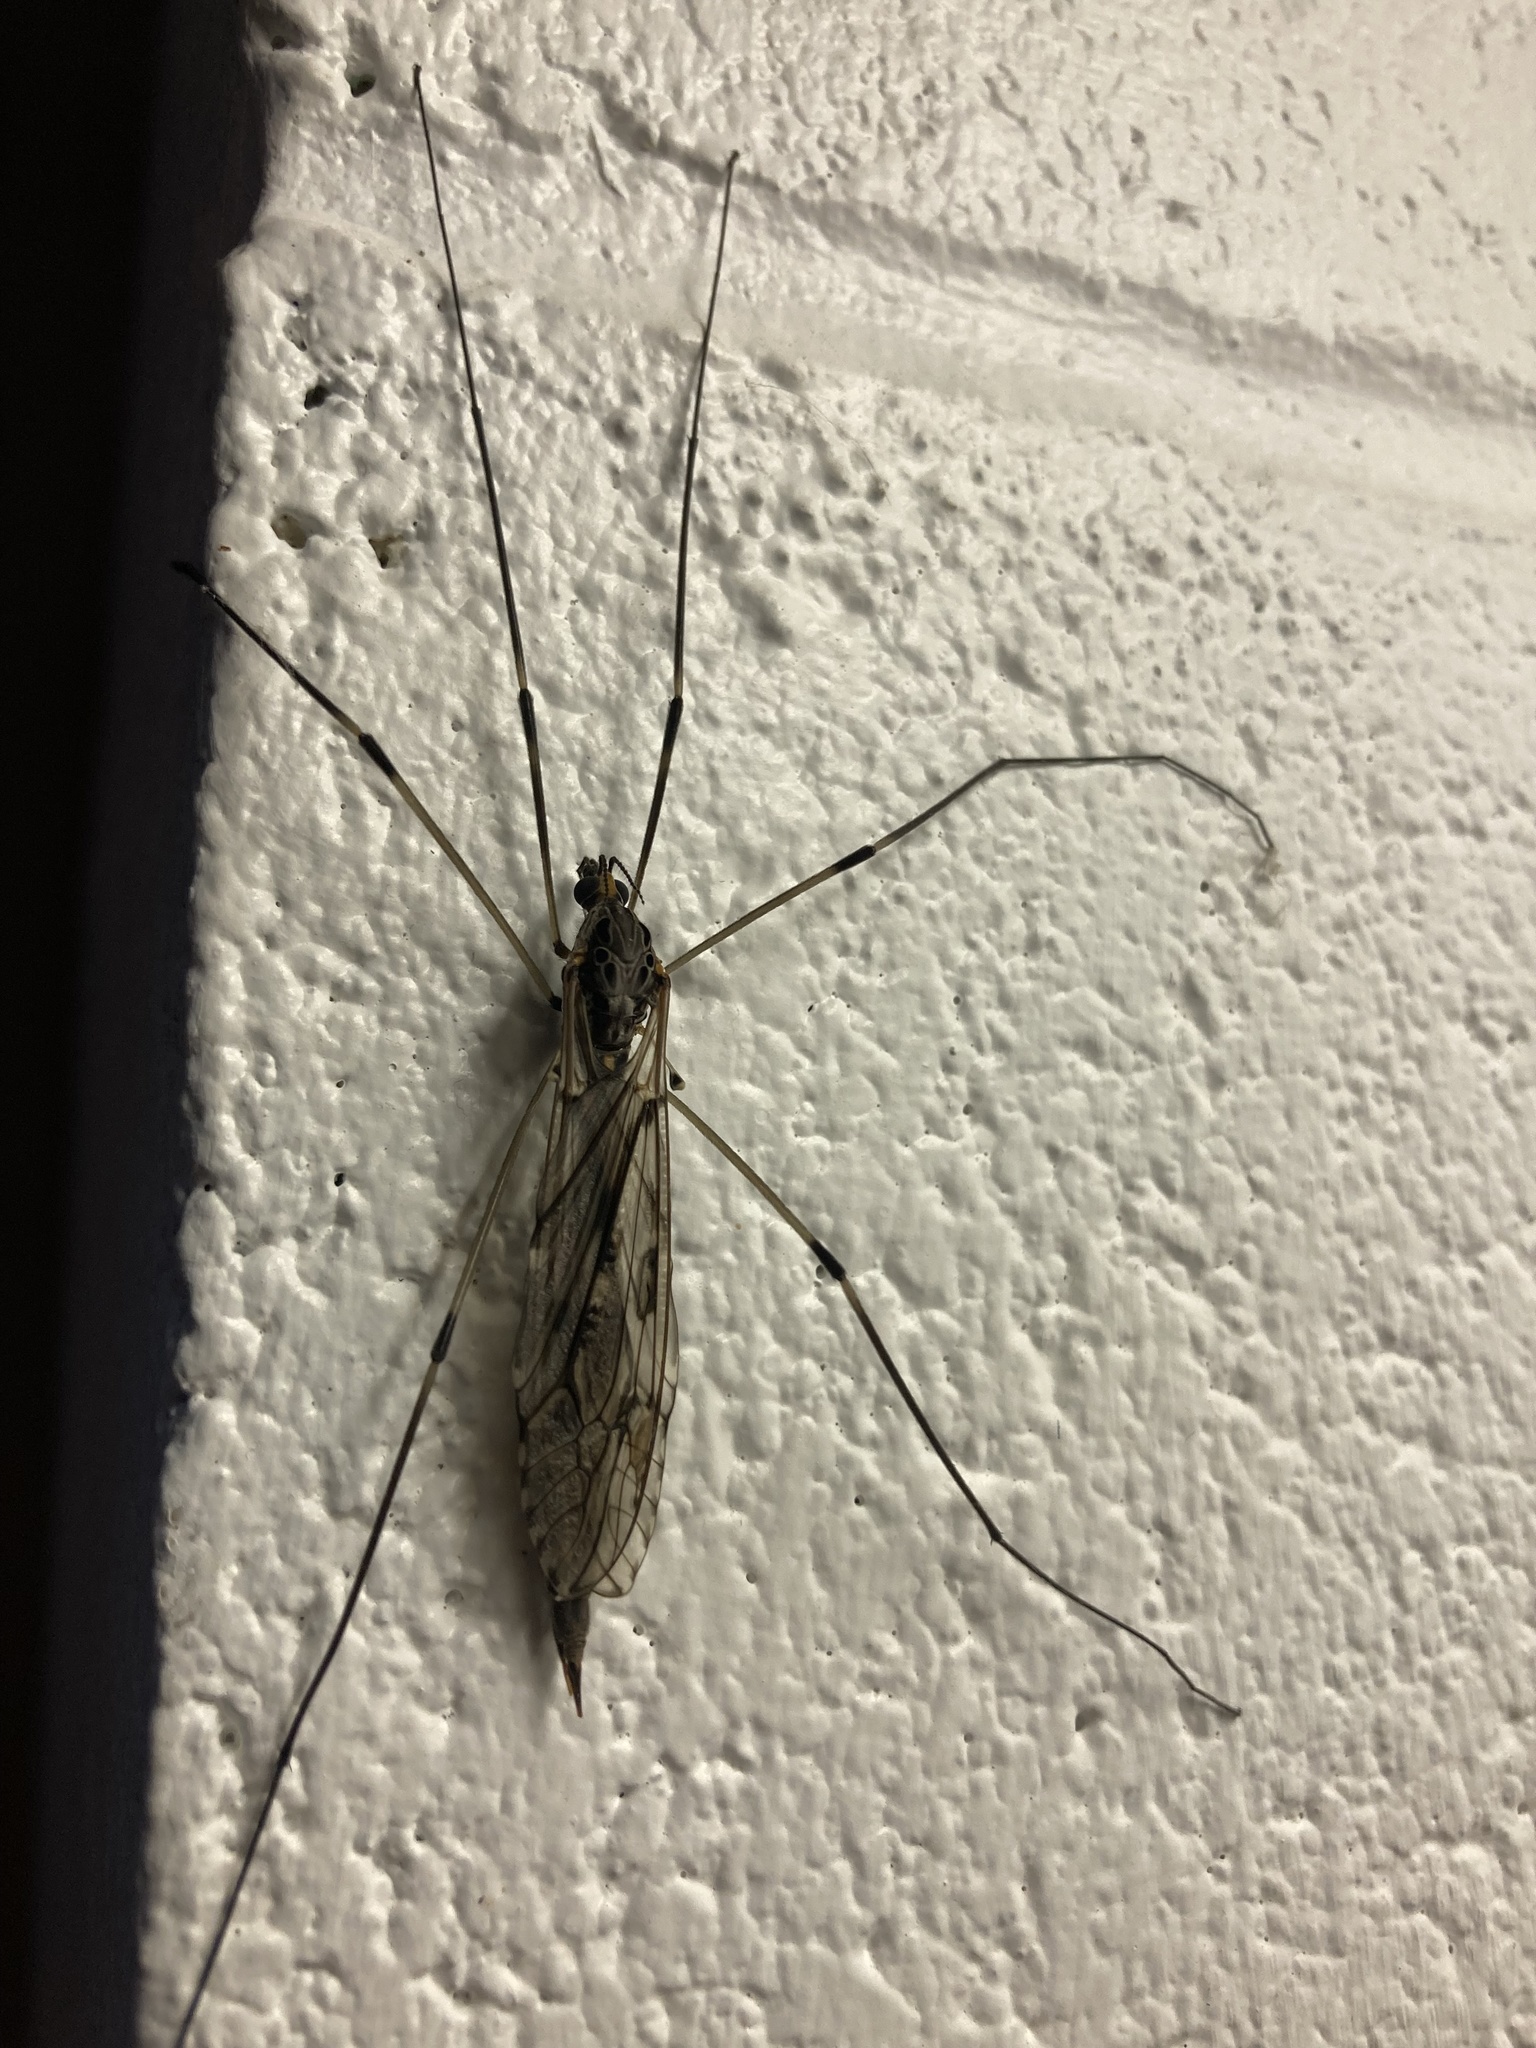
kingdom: Animalia
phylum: Arthropoda
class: Insecta
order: Diptera
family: Tipulidae
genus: Tipula
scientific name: Tipula abdominalis
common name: Giant crane fly
